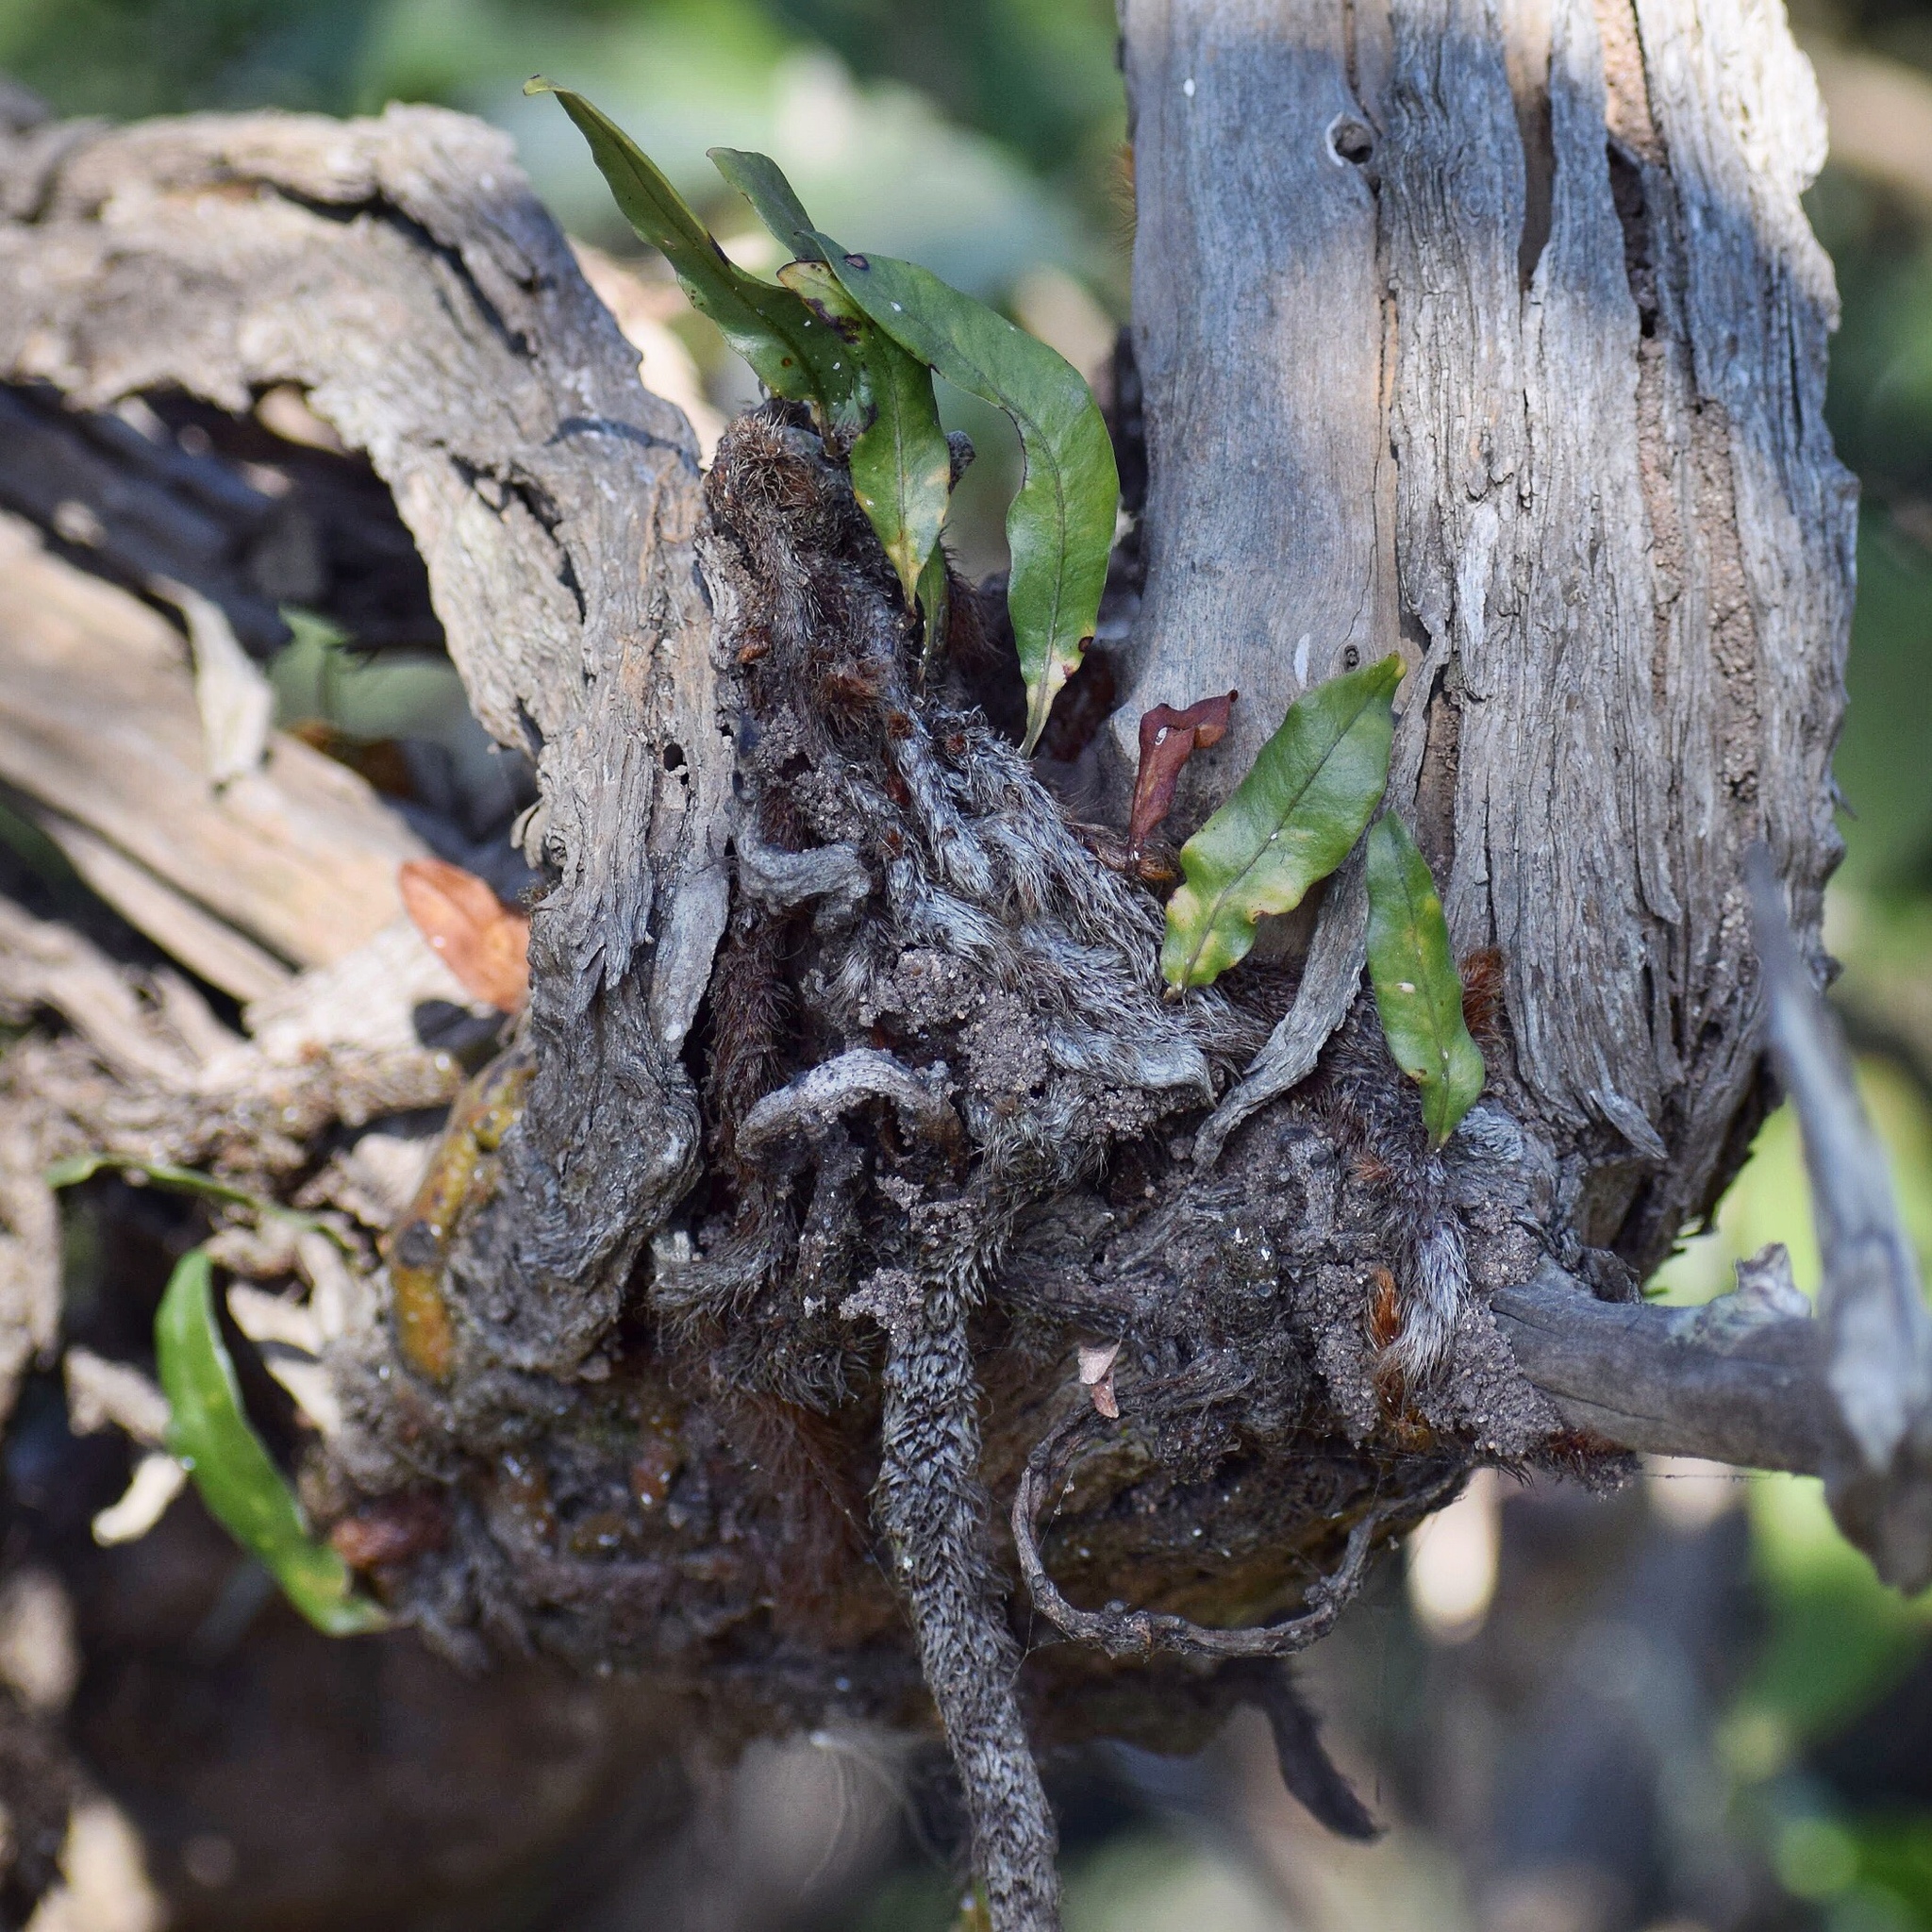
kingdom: Plantae
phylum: Tracheophyta
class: Polypodiopsida
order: Polypodiales
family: Polypodiaceae
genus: Microgramma
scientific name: Microgramma mauritiana
